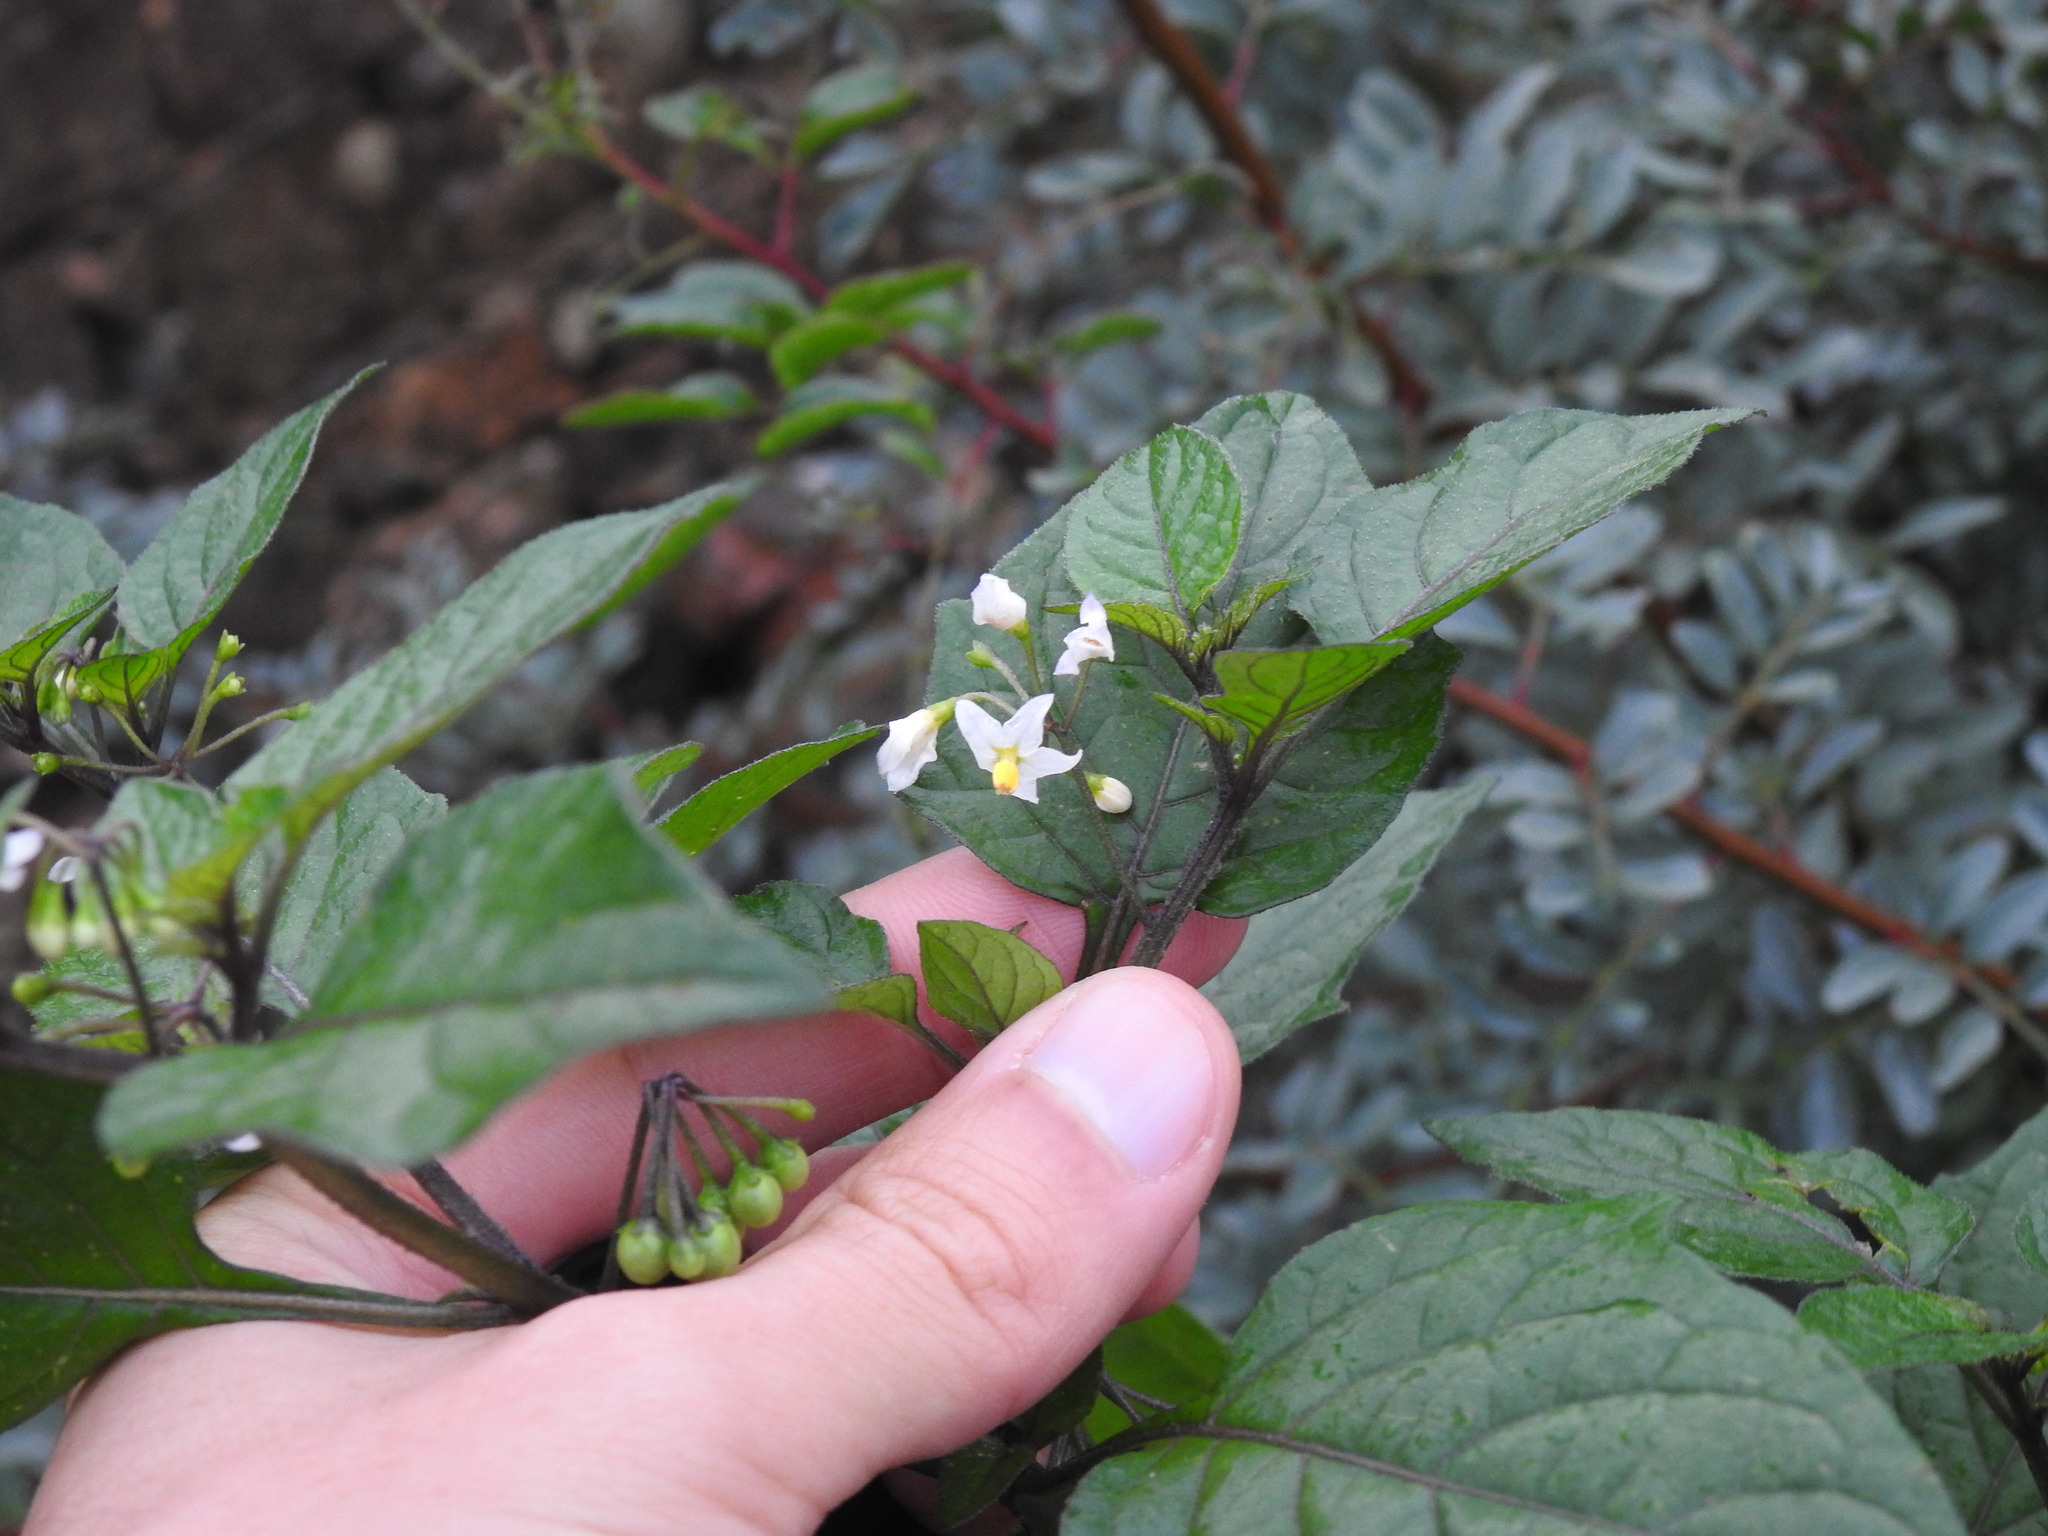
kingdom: Plantae
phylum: Tracheophyta
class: Magnoliopsida
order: Solanales
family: Solanaceae
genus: Solanum
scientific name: Solanum nigrum
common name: Black nightshade
